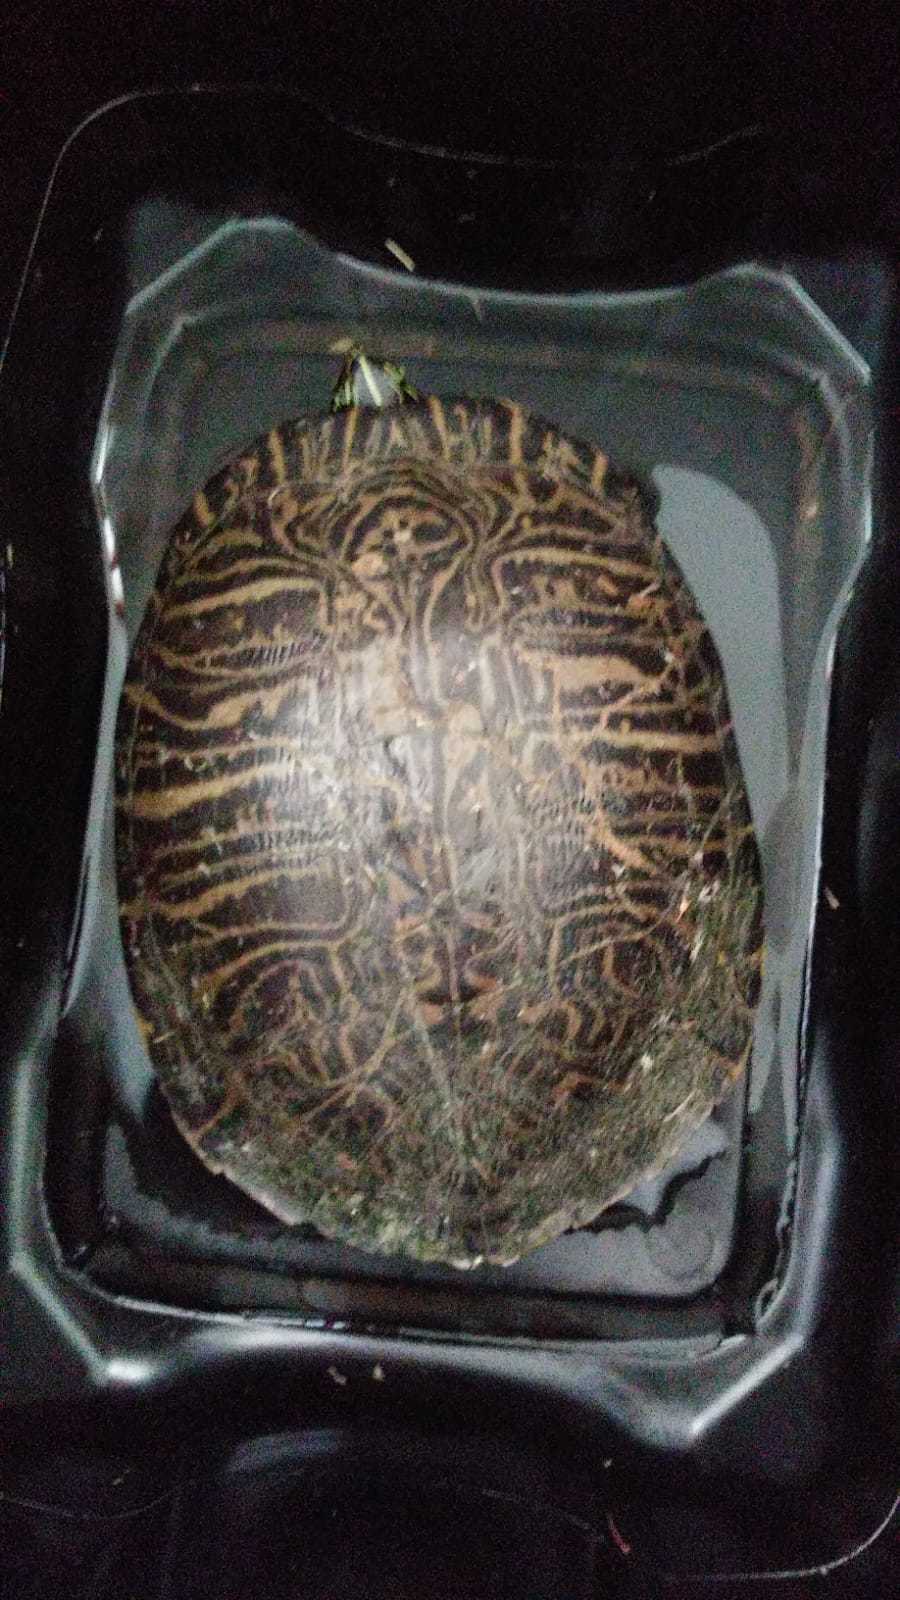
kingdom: Animalia
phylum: Chordata
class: Testudines
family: Emydidae
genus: Pseudemys
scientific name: Pseudemys peninsularis
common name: Peninsula cooter
